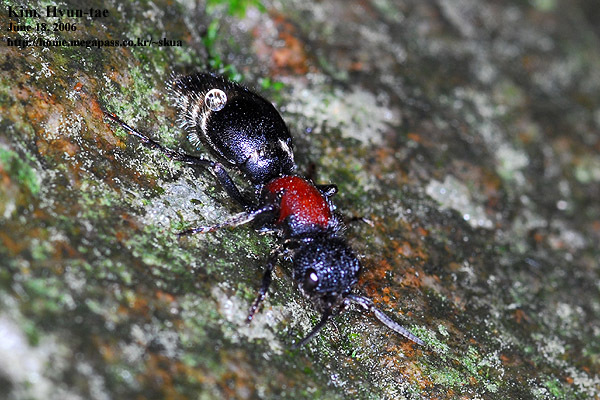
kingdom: Animalia
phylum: Arthropoda
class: Insecta
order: Hymenoptera
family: Mutillidae
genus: Mutilla
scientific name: Mutilla mikado
